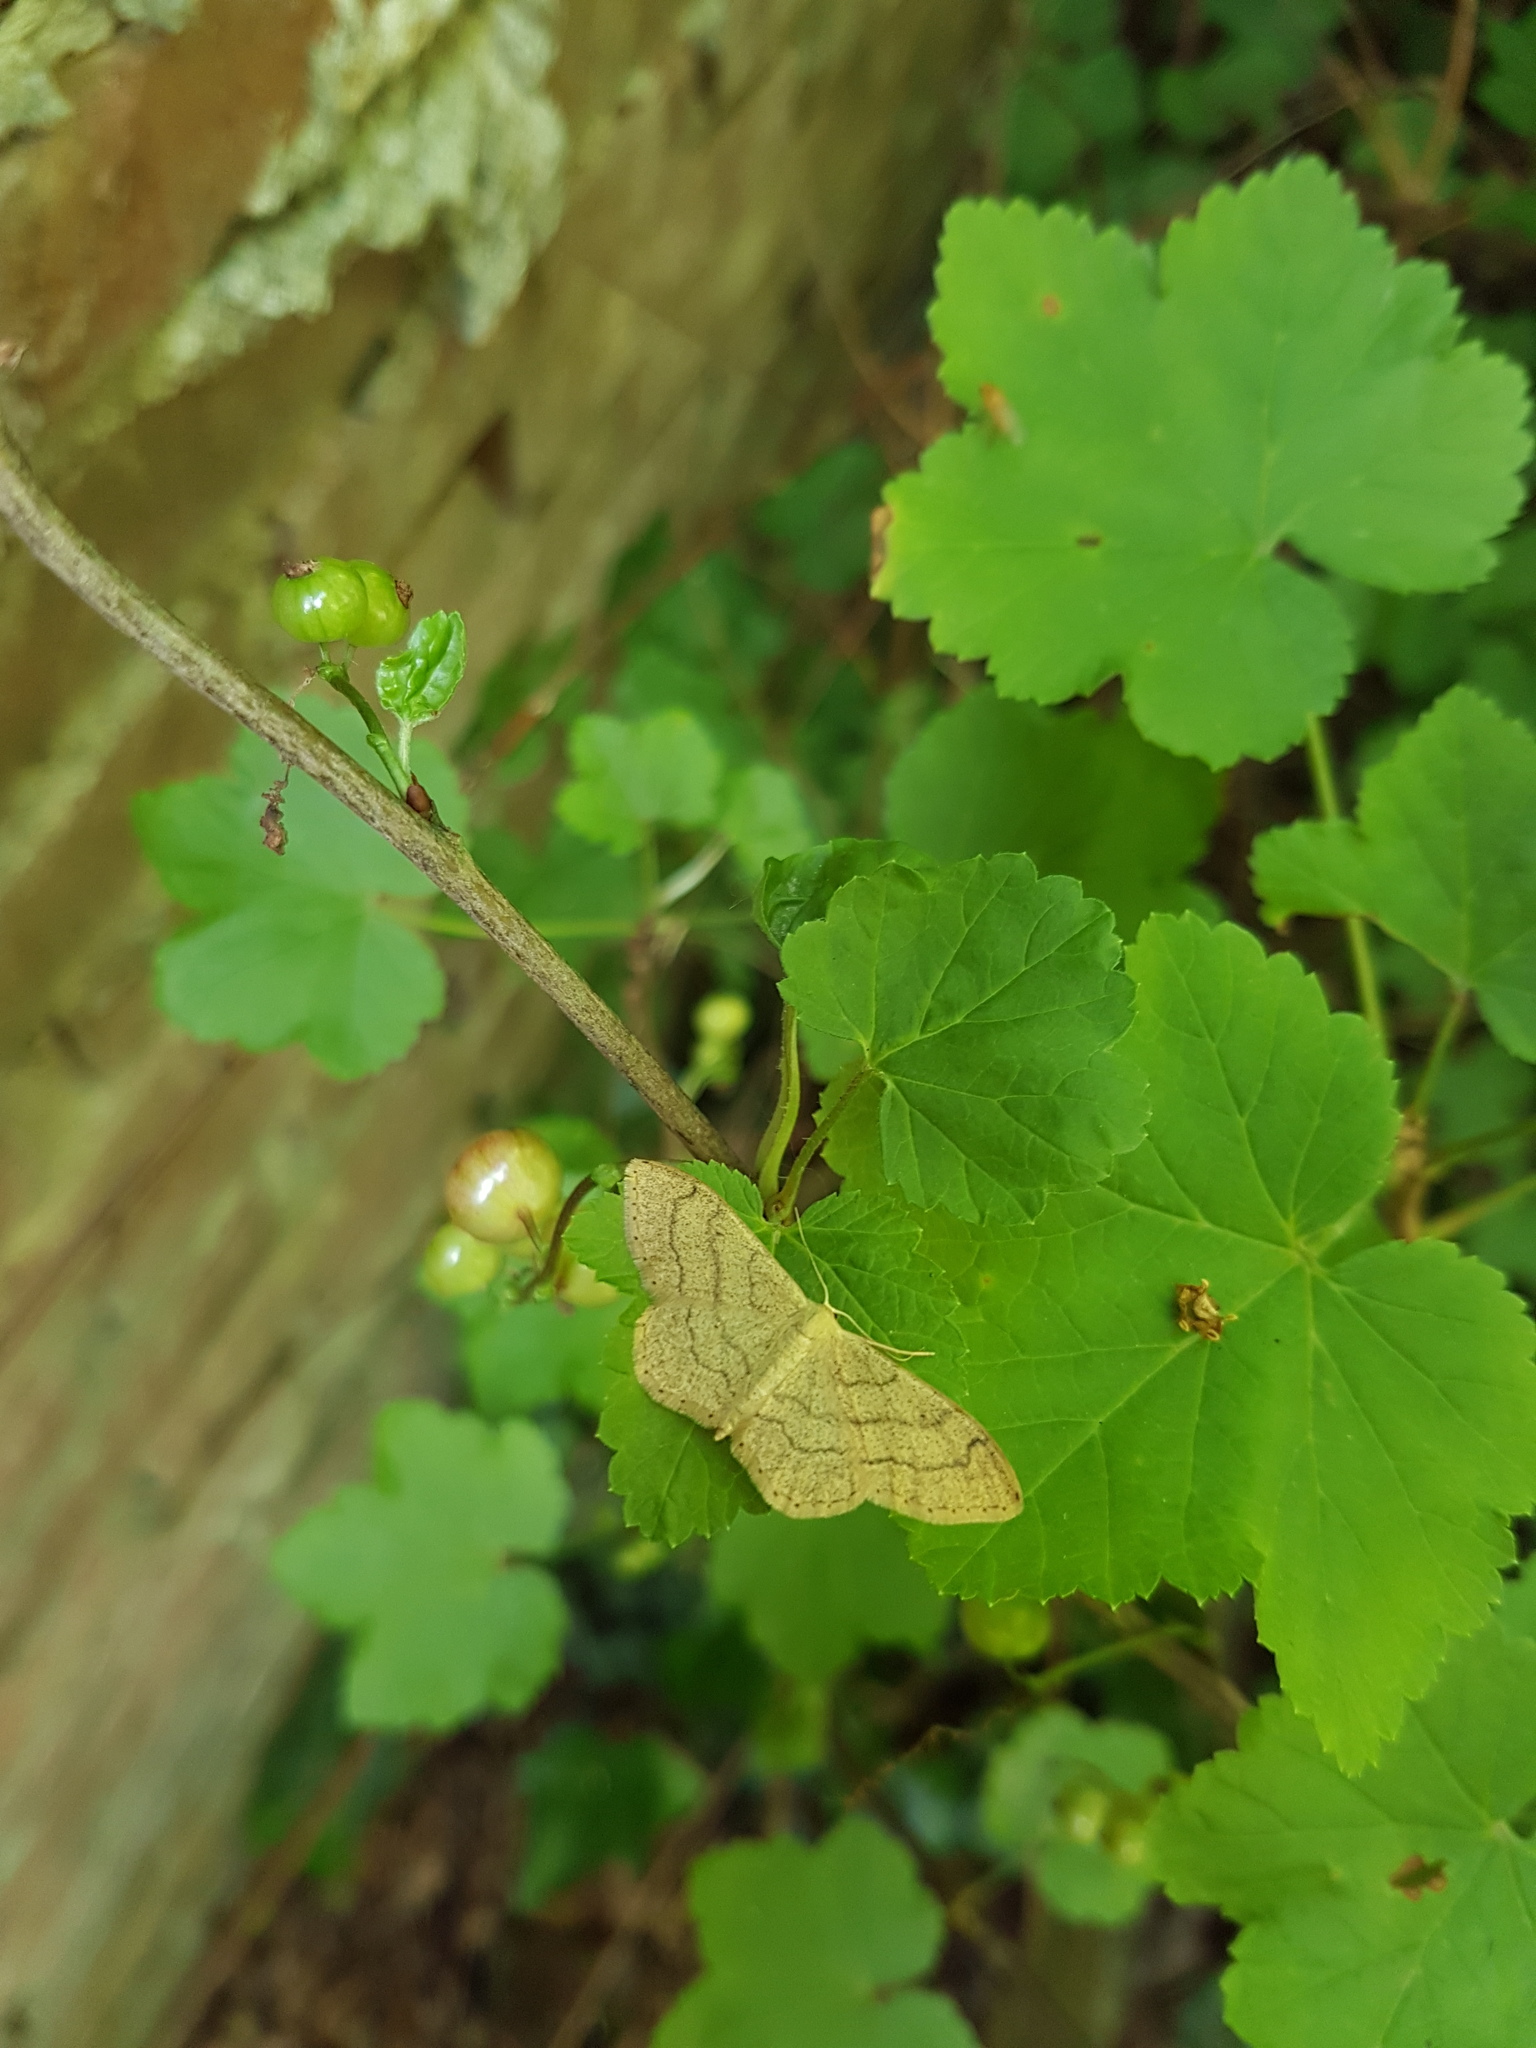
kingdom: Animalia
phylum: Arthropoda
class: Insecta
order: Lepidoptera
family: Geometridae
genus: Idaea
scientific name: Idaea aversata
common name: Riband wave
